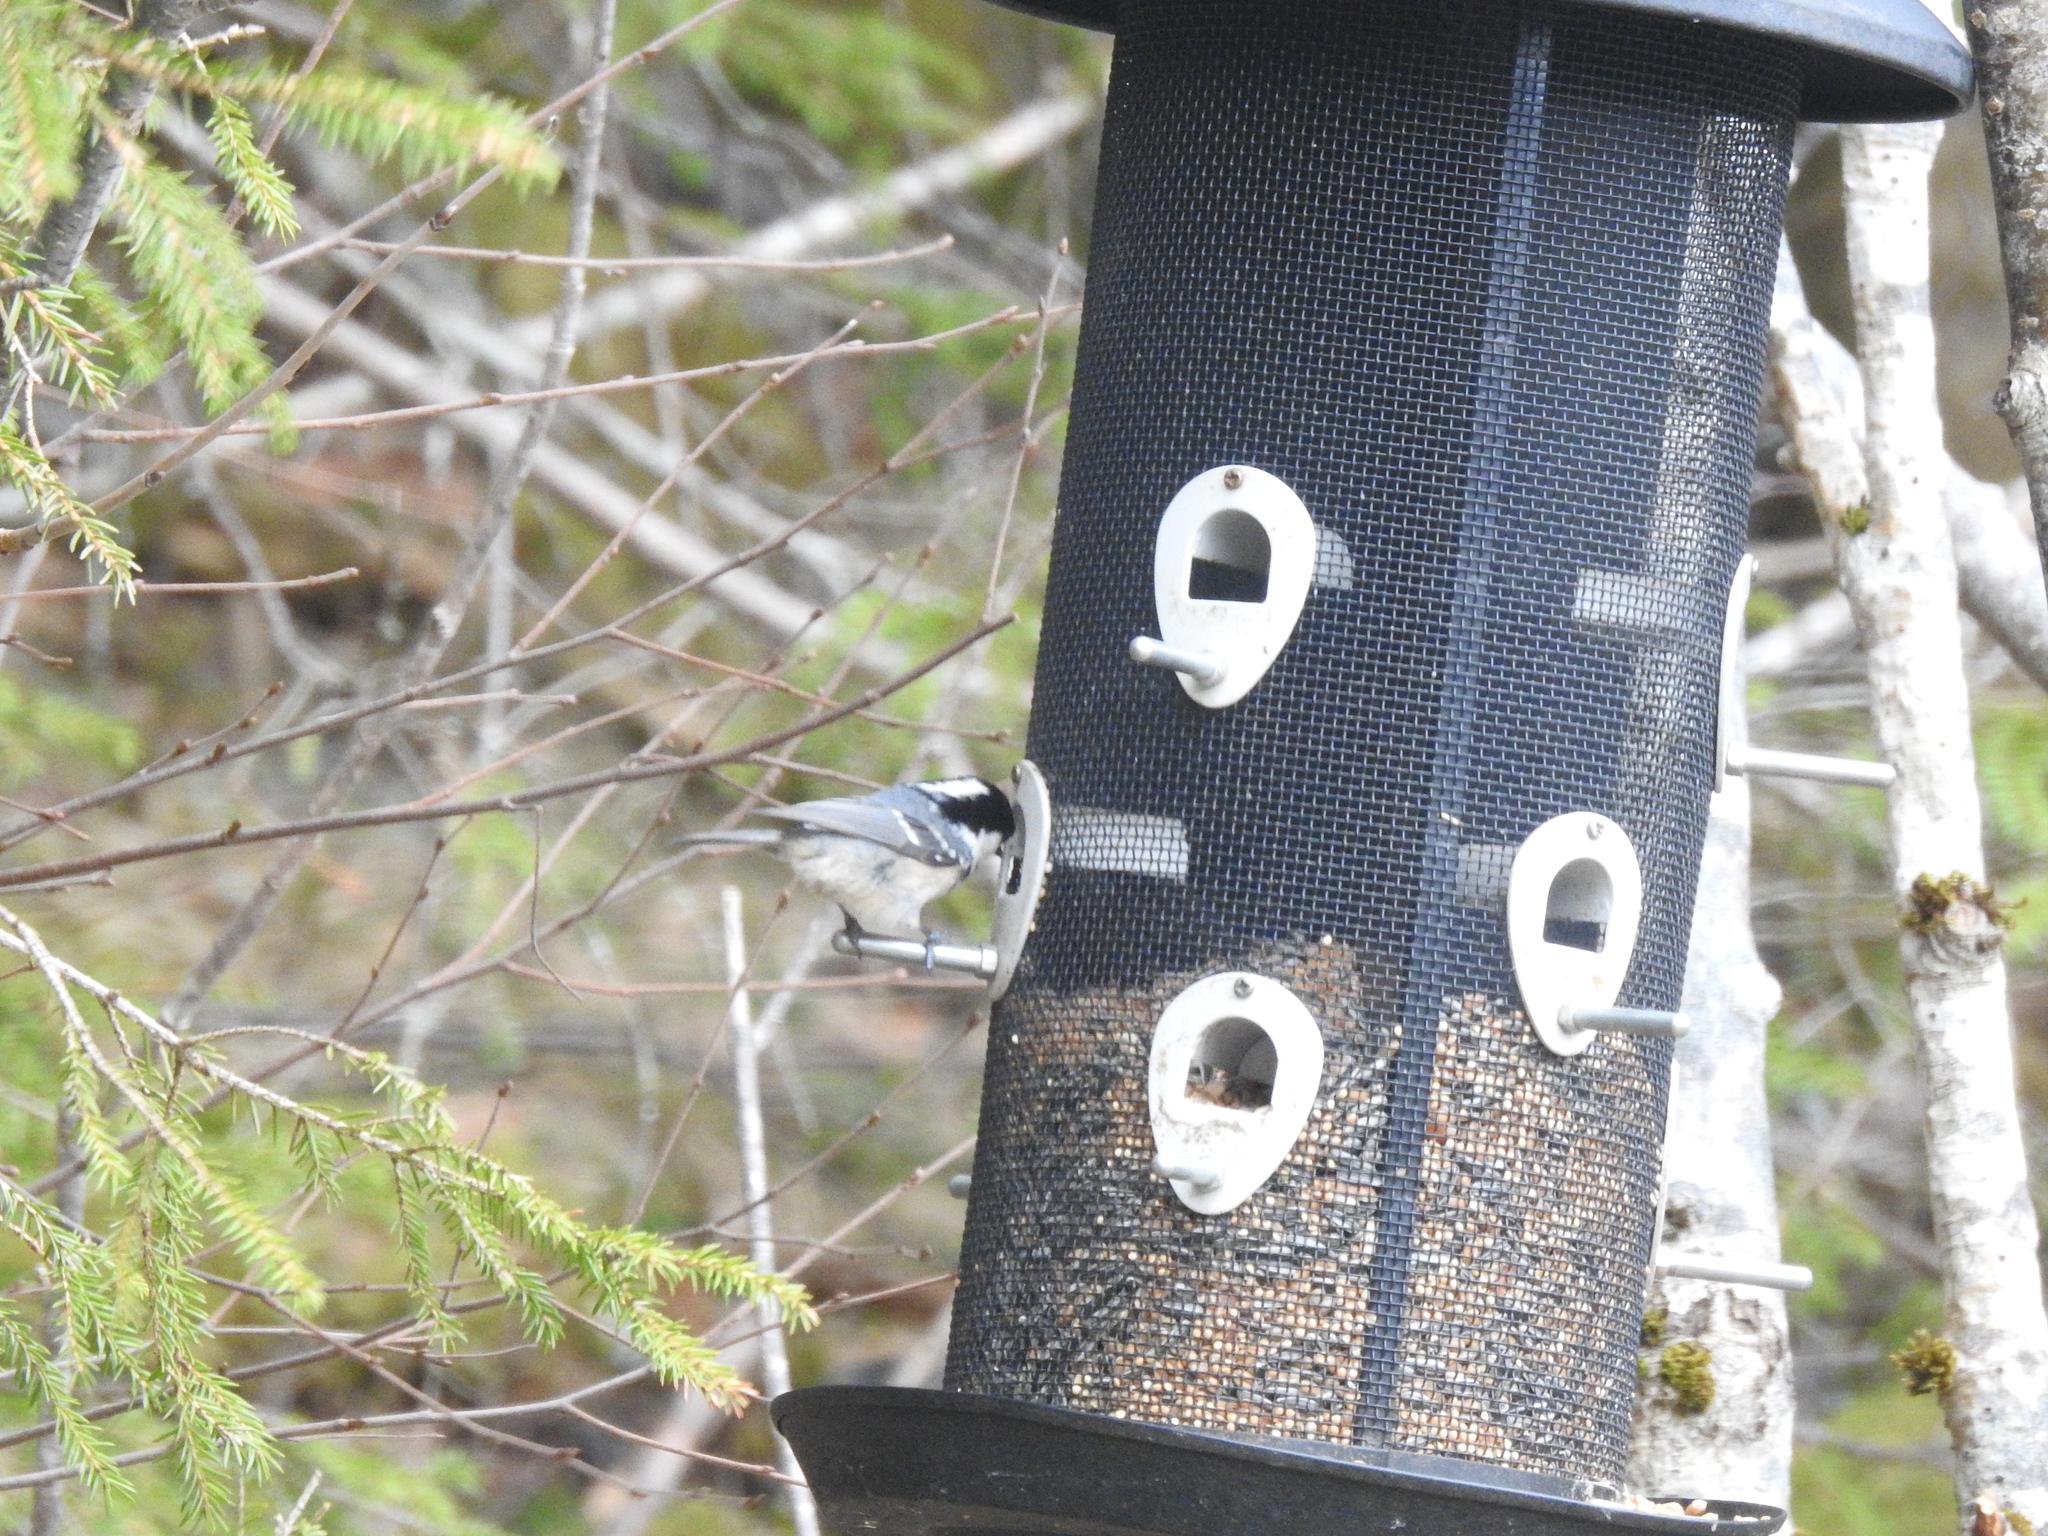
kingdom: Animalia
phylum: Chordata
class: Aves
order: Passeriformes
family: Paridae
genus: Periparus
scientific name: Periparus ater
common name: Coal tit
